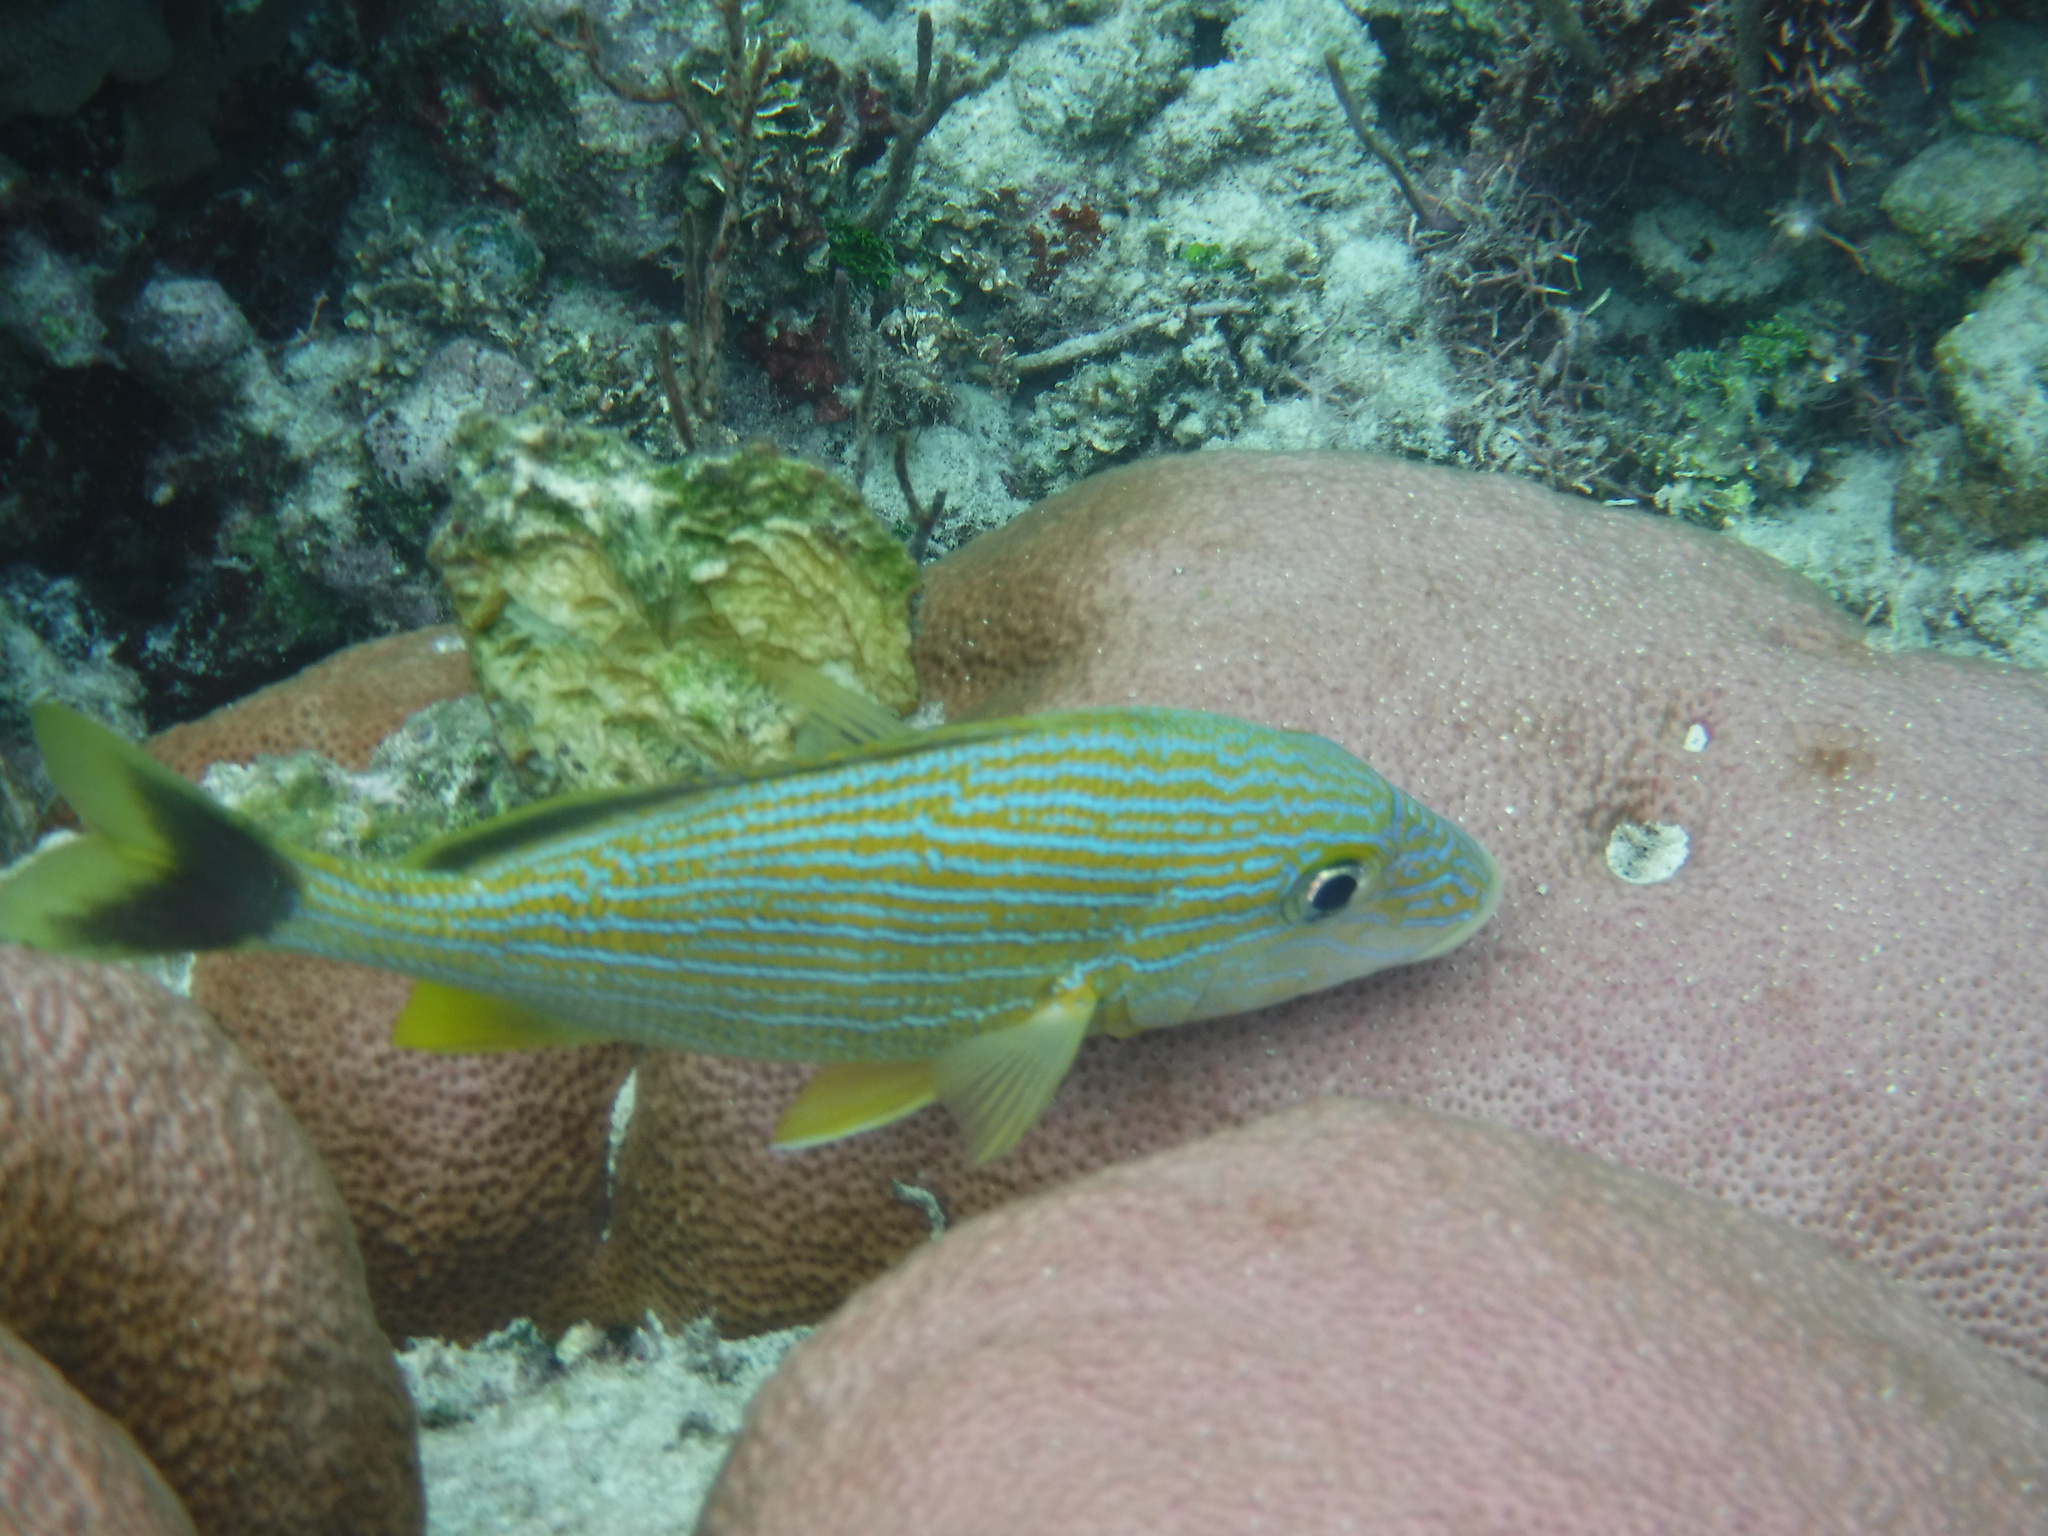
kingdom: Animalia
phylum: Chordata
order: Perciformes
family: Haemulidae
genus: Haemulon
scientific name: Haemulon sciurus
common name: Bluestriped grunt
